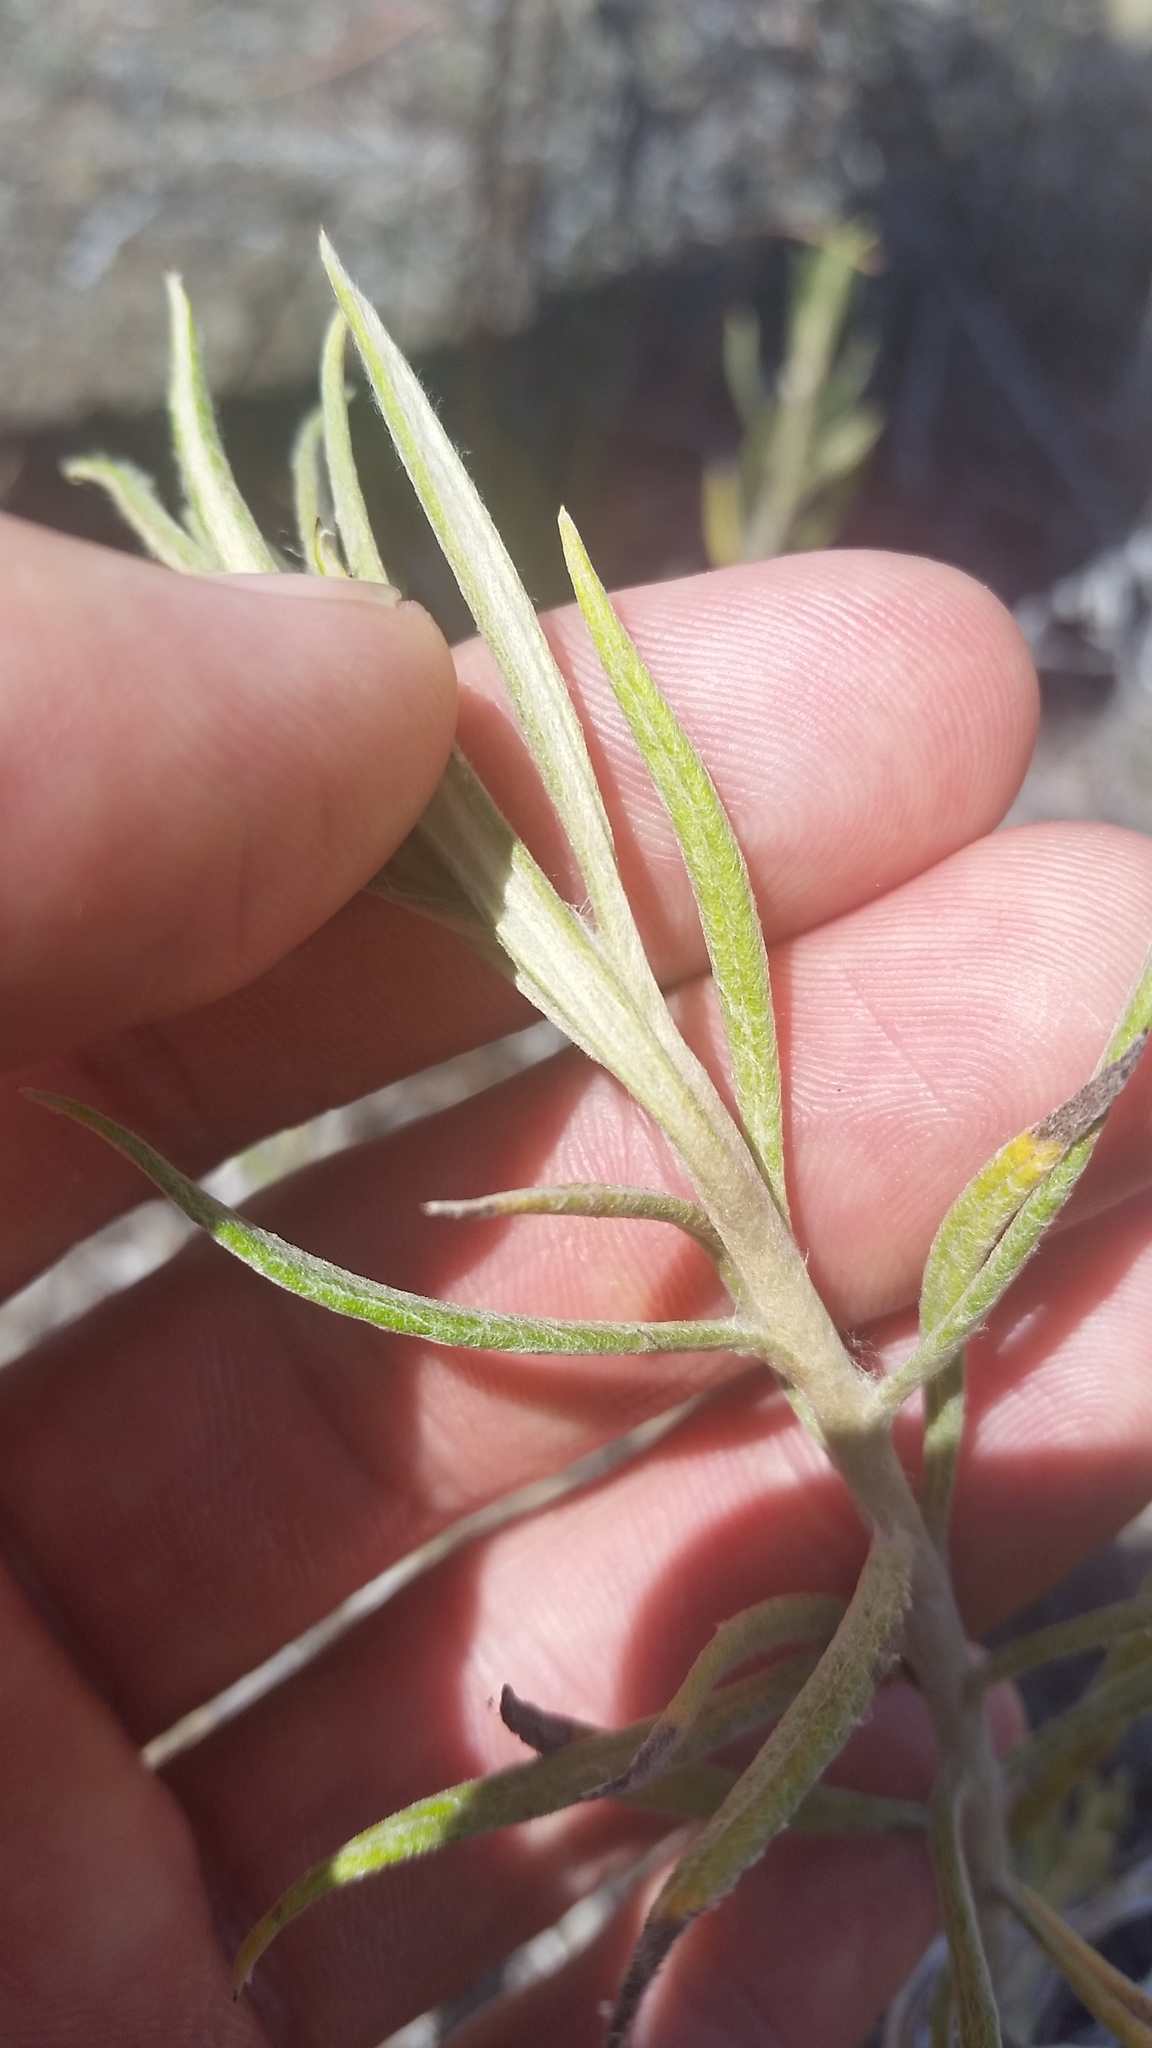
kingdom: Plantae
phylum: Tracheophyta
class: Magnoliopsida
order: Asterales
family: Asteraceae
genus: Pseudognaphalium
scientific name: Pseudognaphalium attenuatum
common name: Tapered cudweed
